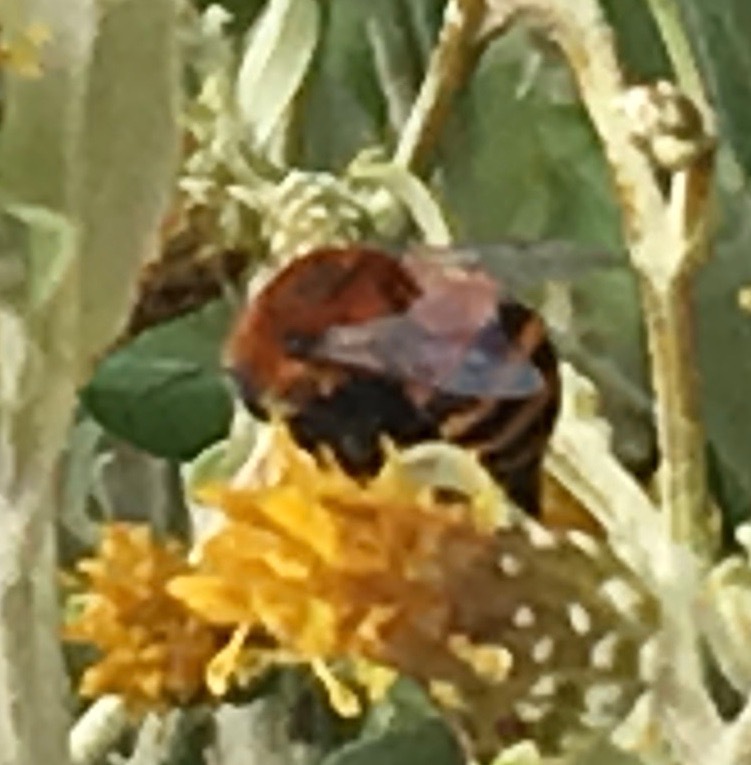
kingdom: Animalia
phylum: Arthropoda
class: Insecta
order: Hymenoptera
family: Apidae
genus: Anthophora
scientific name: Anthophora urbana
